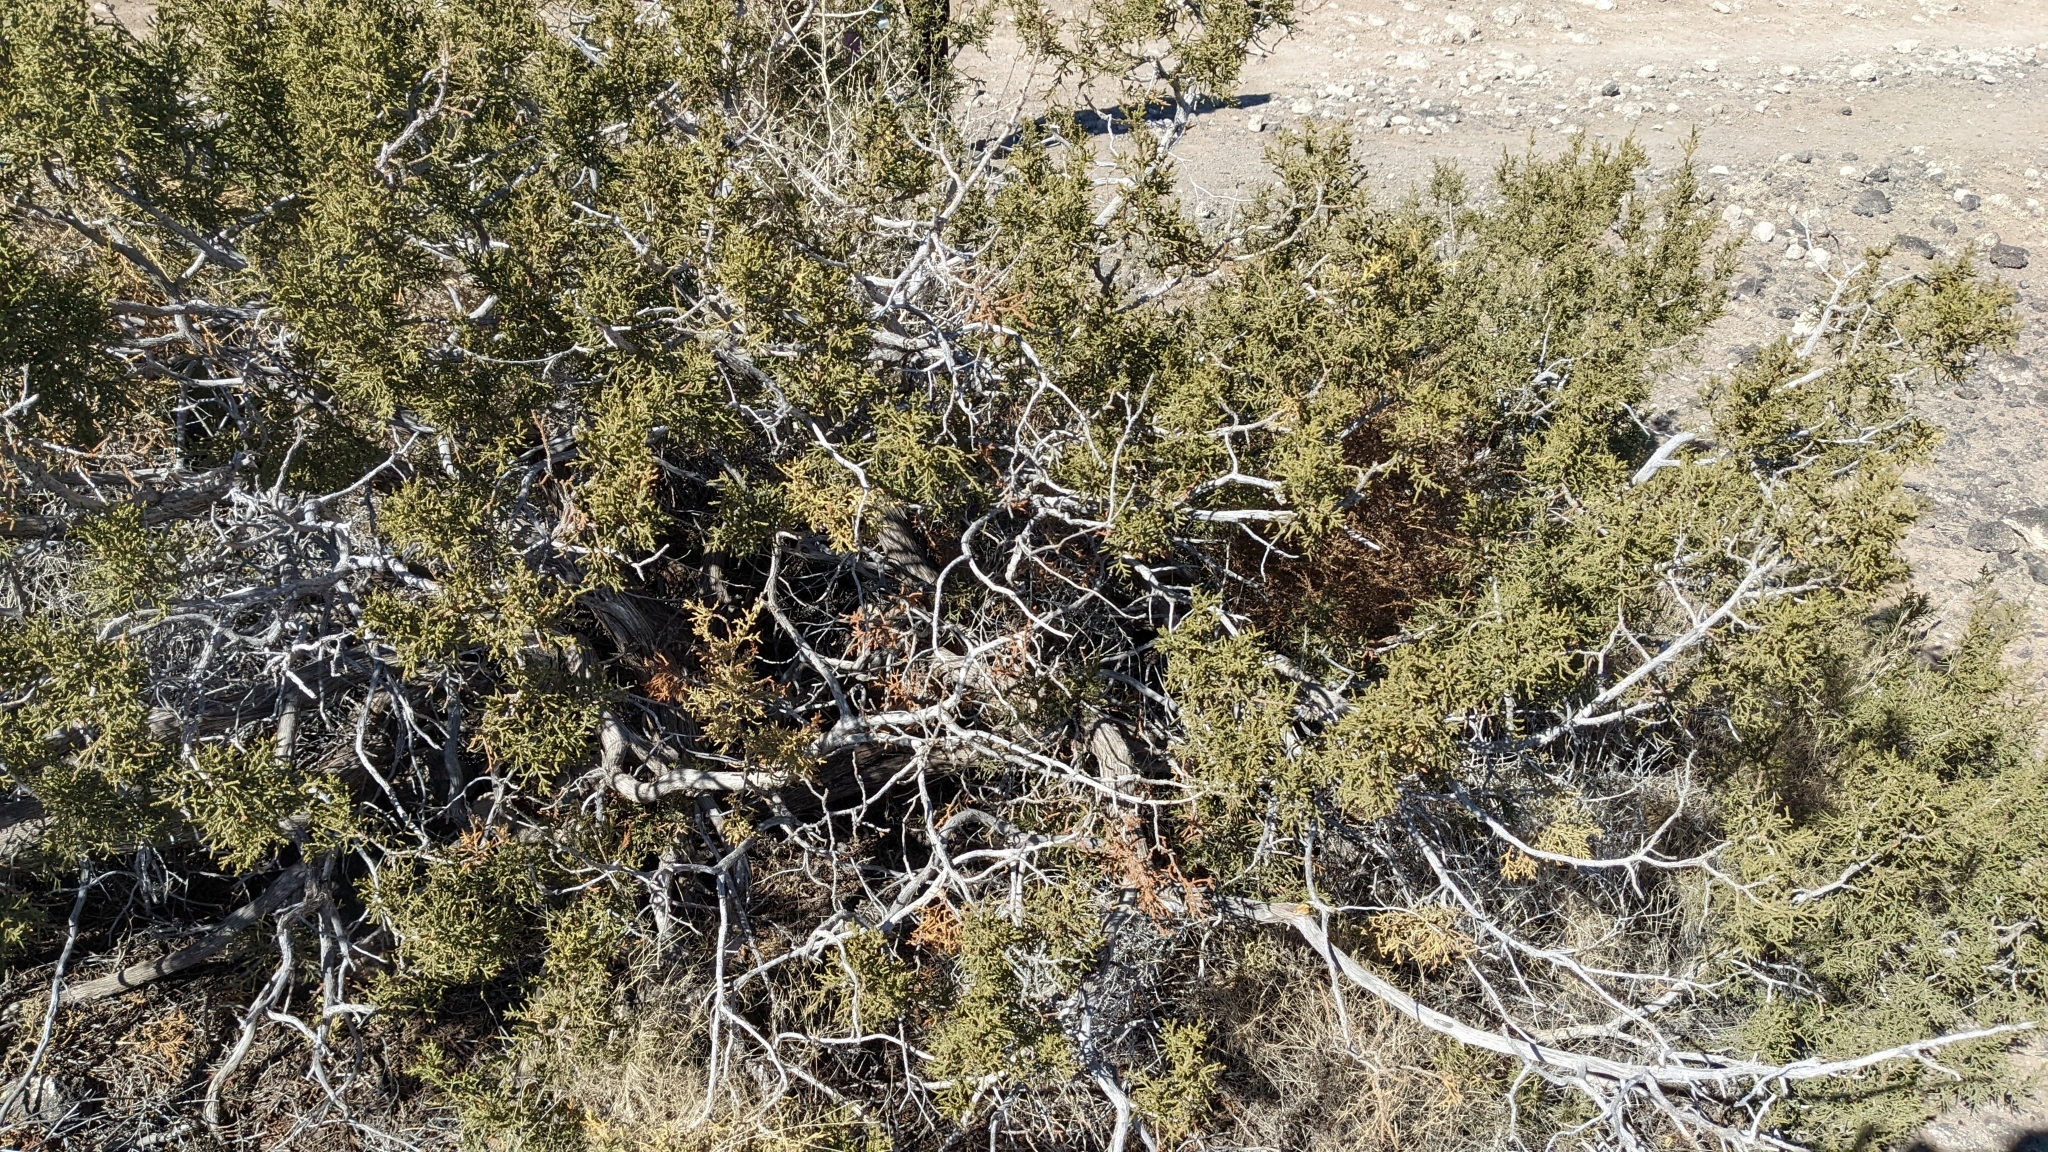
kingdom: Plantae
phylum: Tracheophyta
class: Pinopsida
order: Pinales
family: Cupressaceae
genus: Juniperus
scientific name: Juniperus monosperma
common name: One-seed juniper
